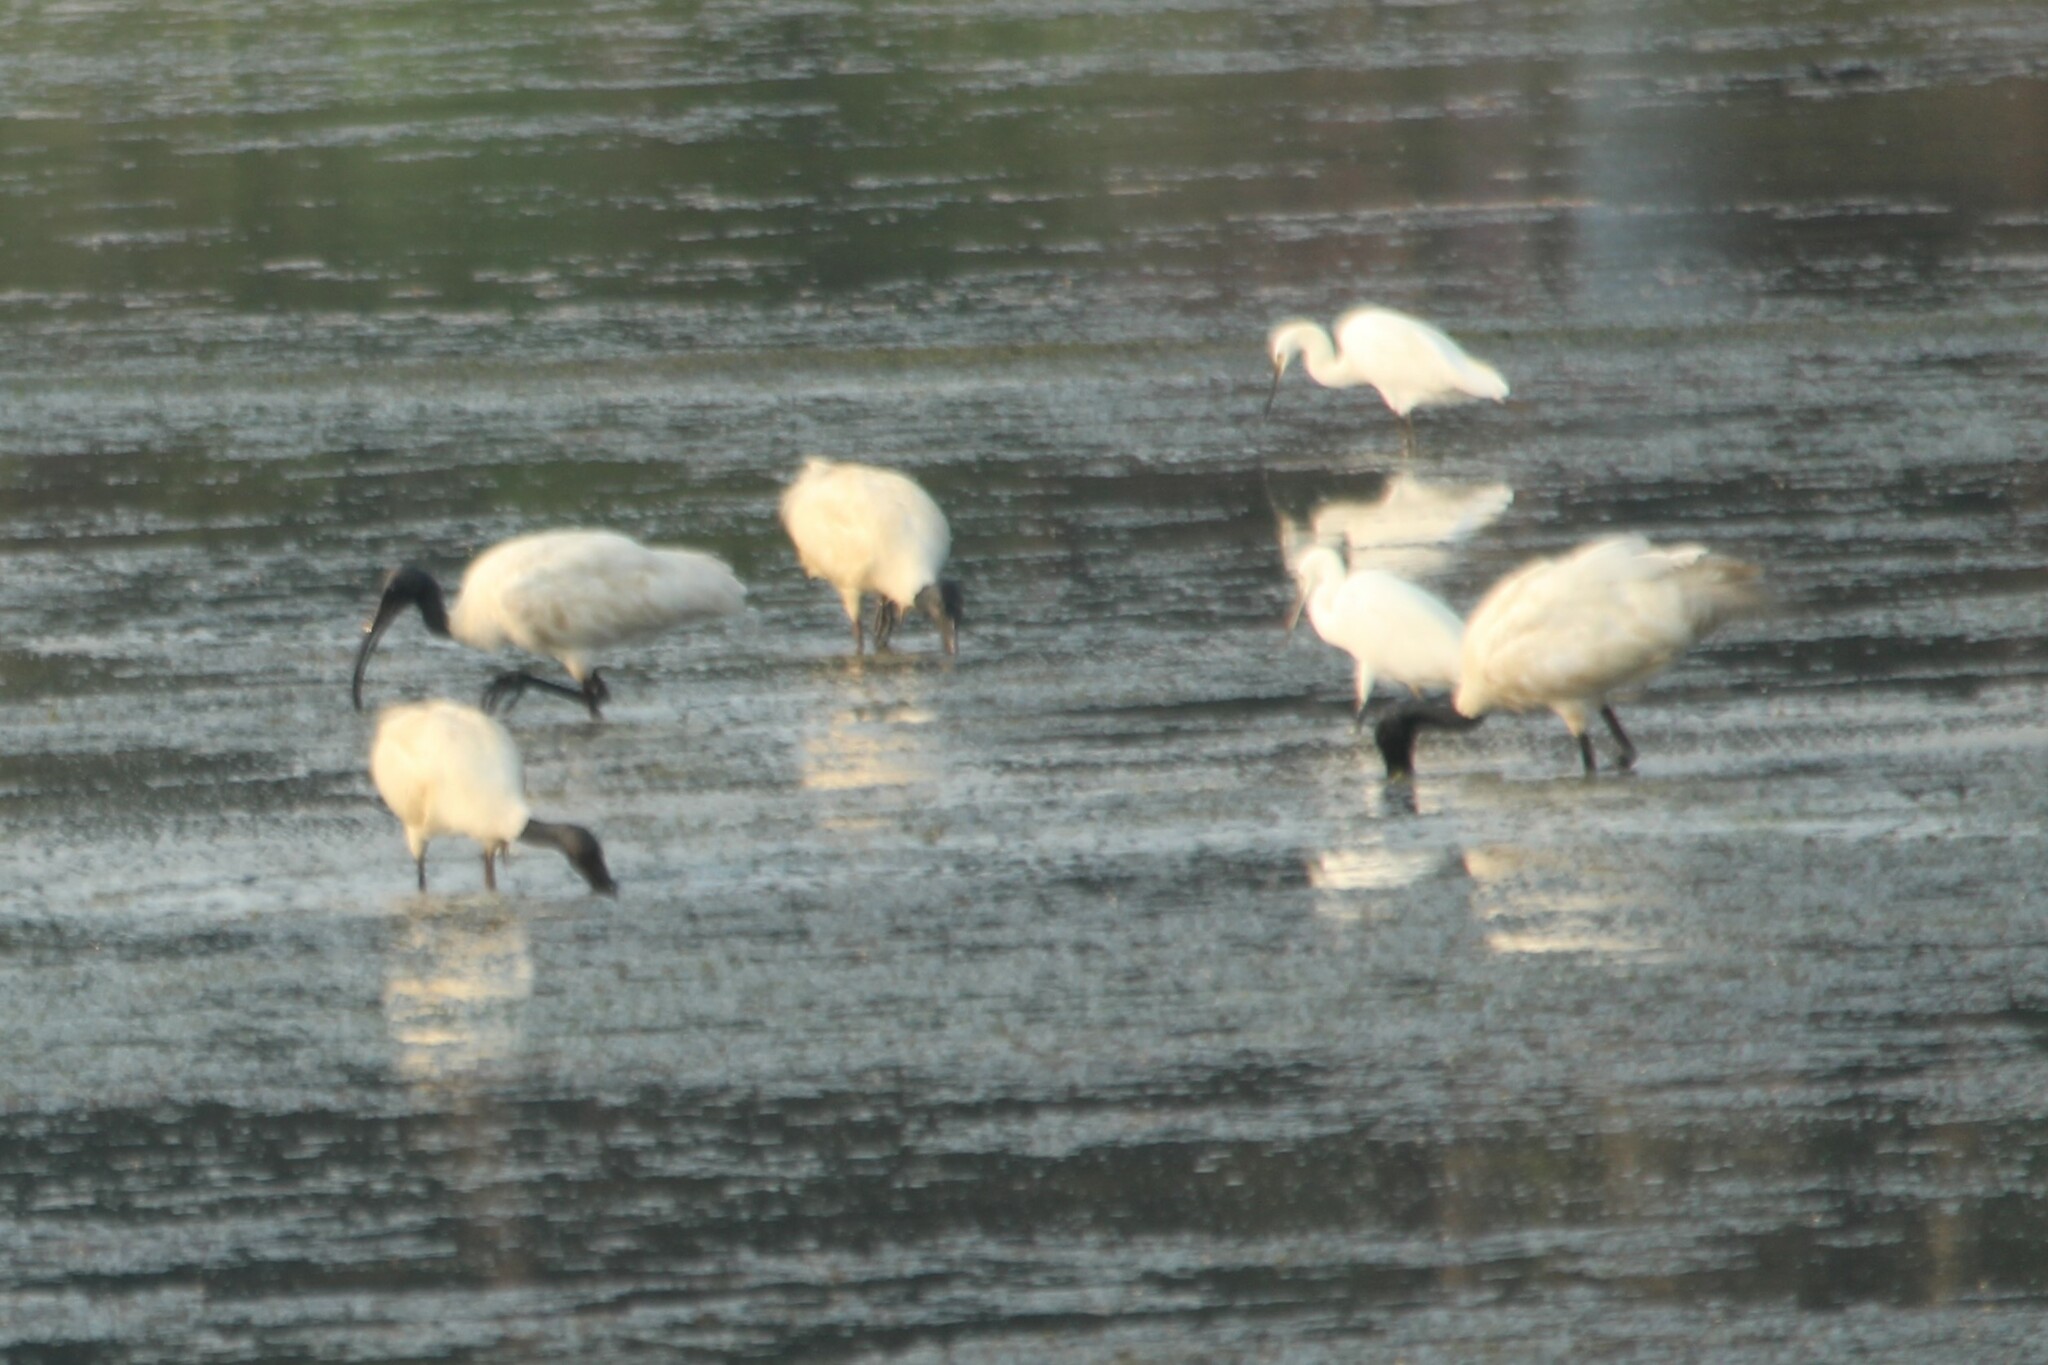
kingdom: Animalia
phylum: Chordata
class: Aves
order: Pelecaniformes
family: Threskiornithidae
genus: Threskiornis
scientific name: Threskiornis melanocephalus
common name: Black-headed ibis
